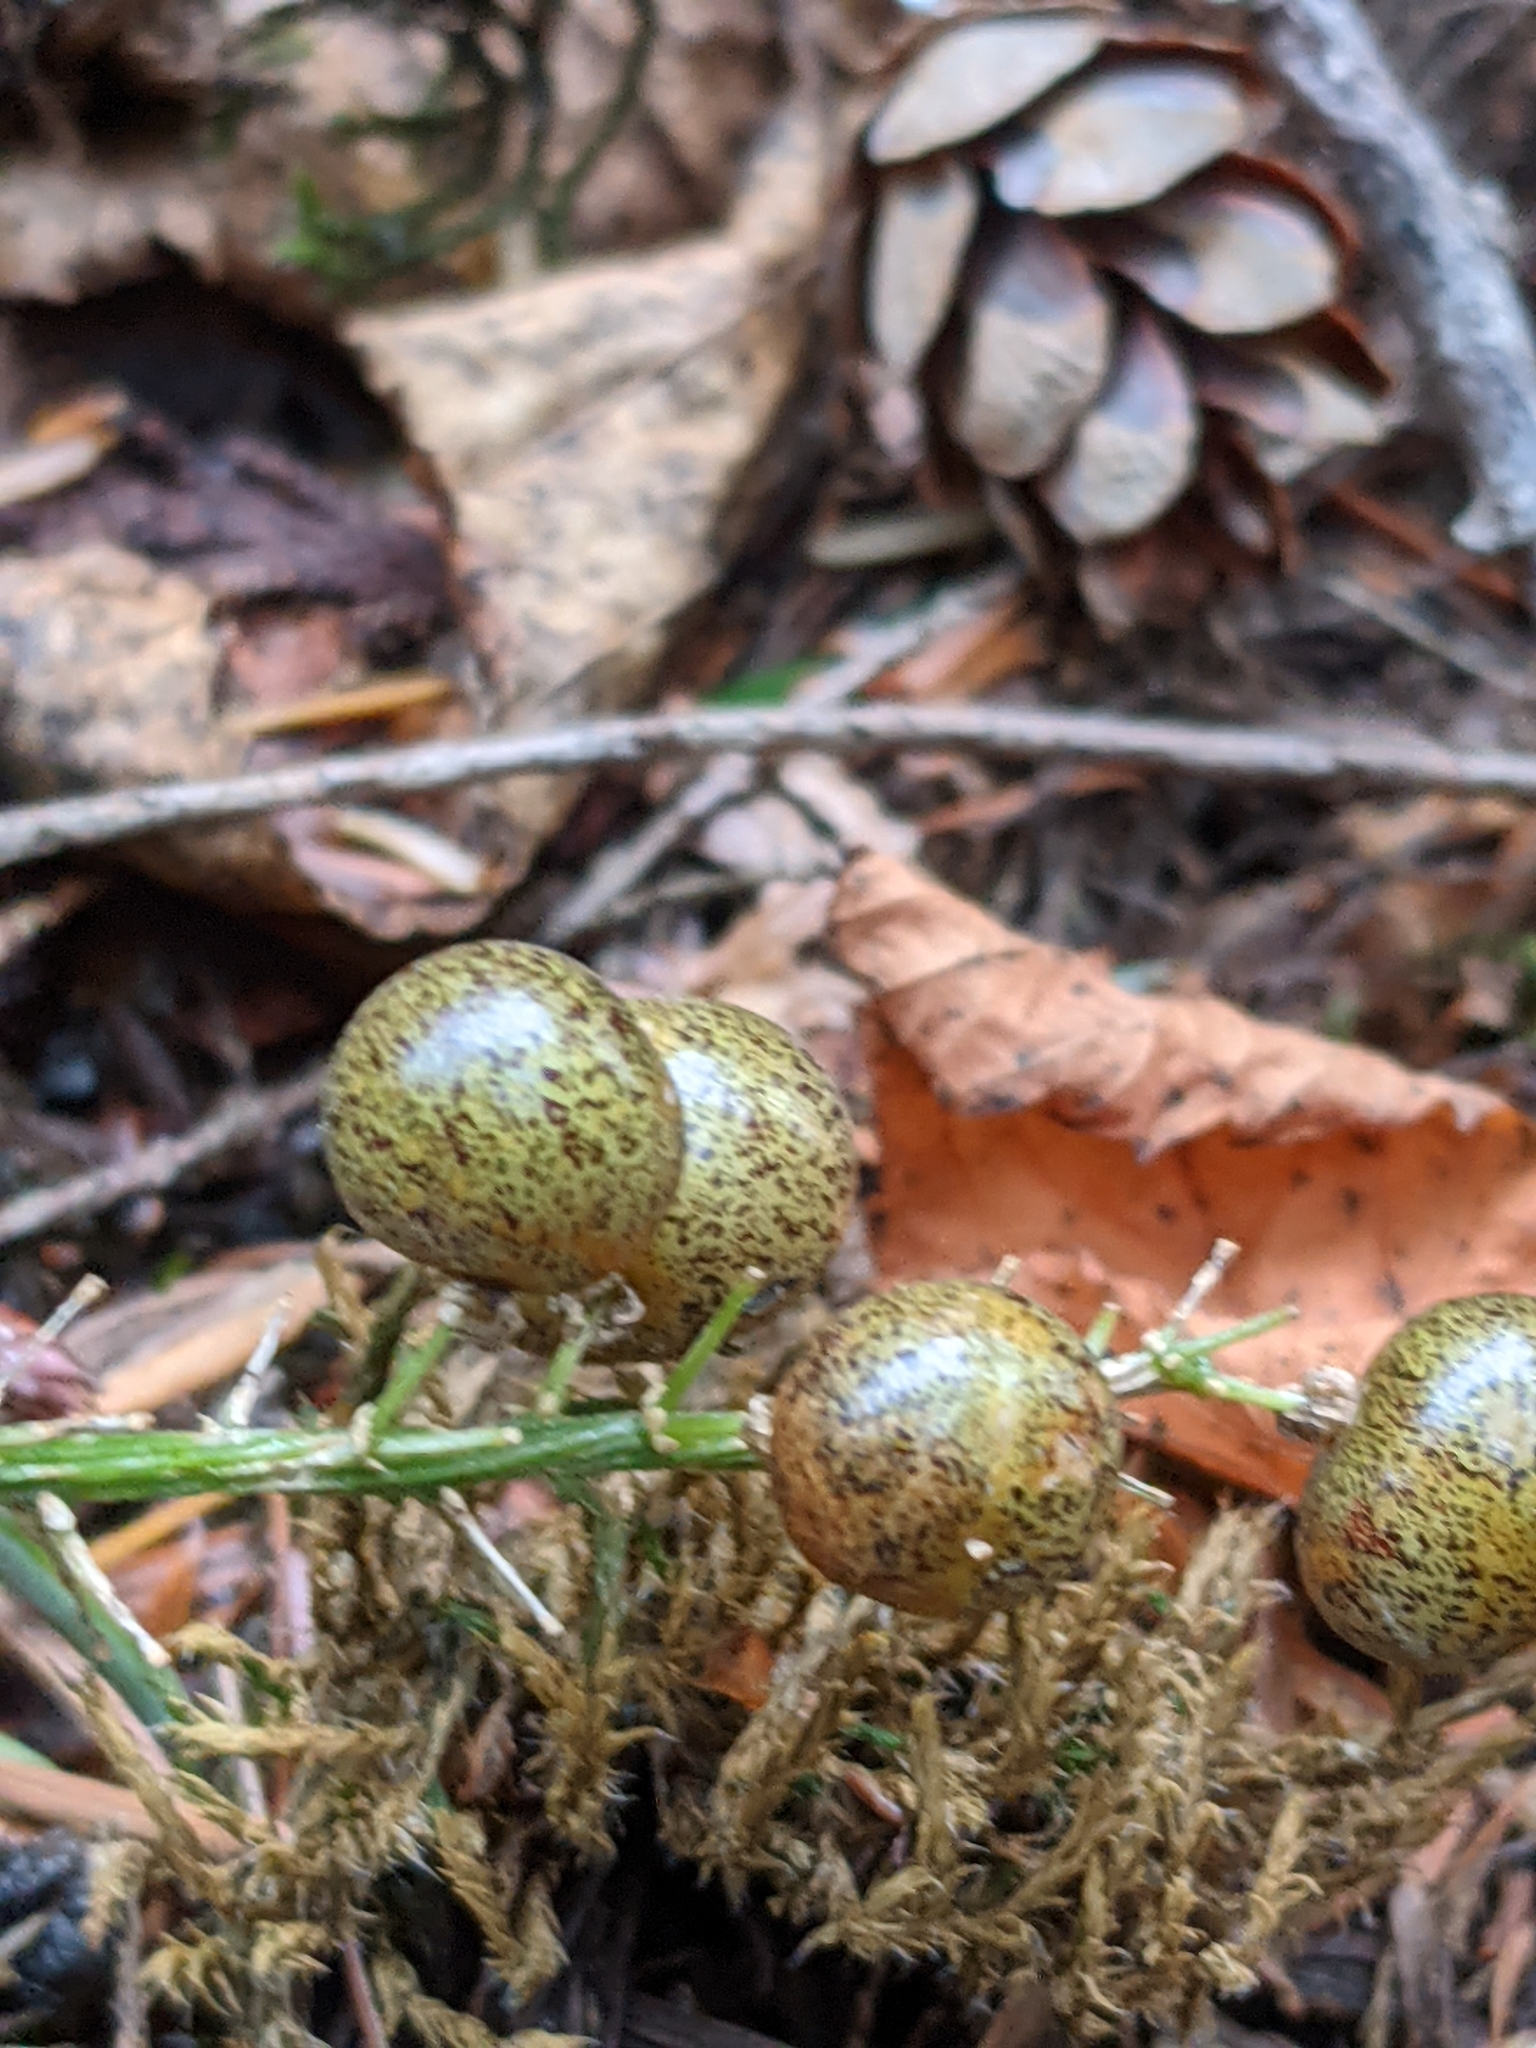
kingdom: Plantae
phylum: Tracheophyta
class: Liliopsida
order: Asparagales
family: Asparagaceae
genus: Maianthemum
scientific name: Maianthemum dilatatum
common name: False lily-of-the-valley
